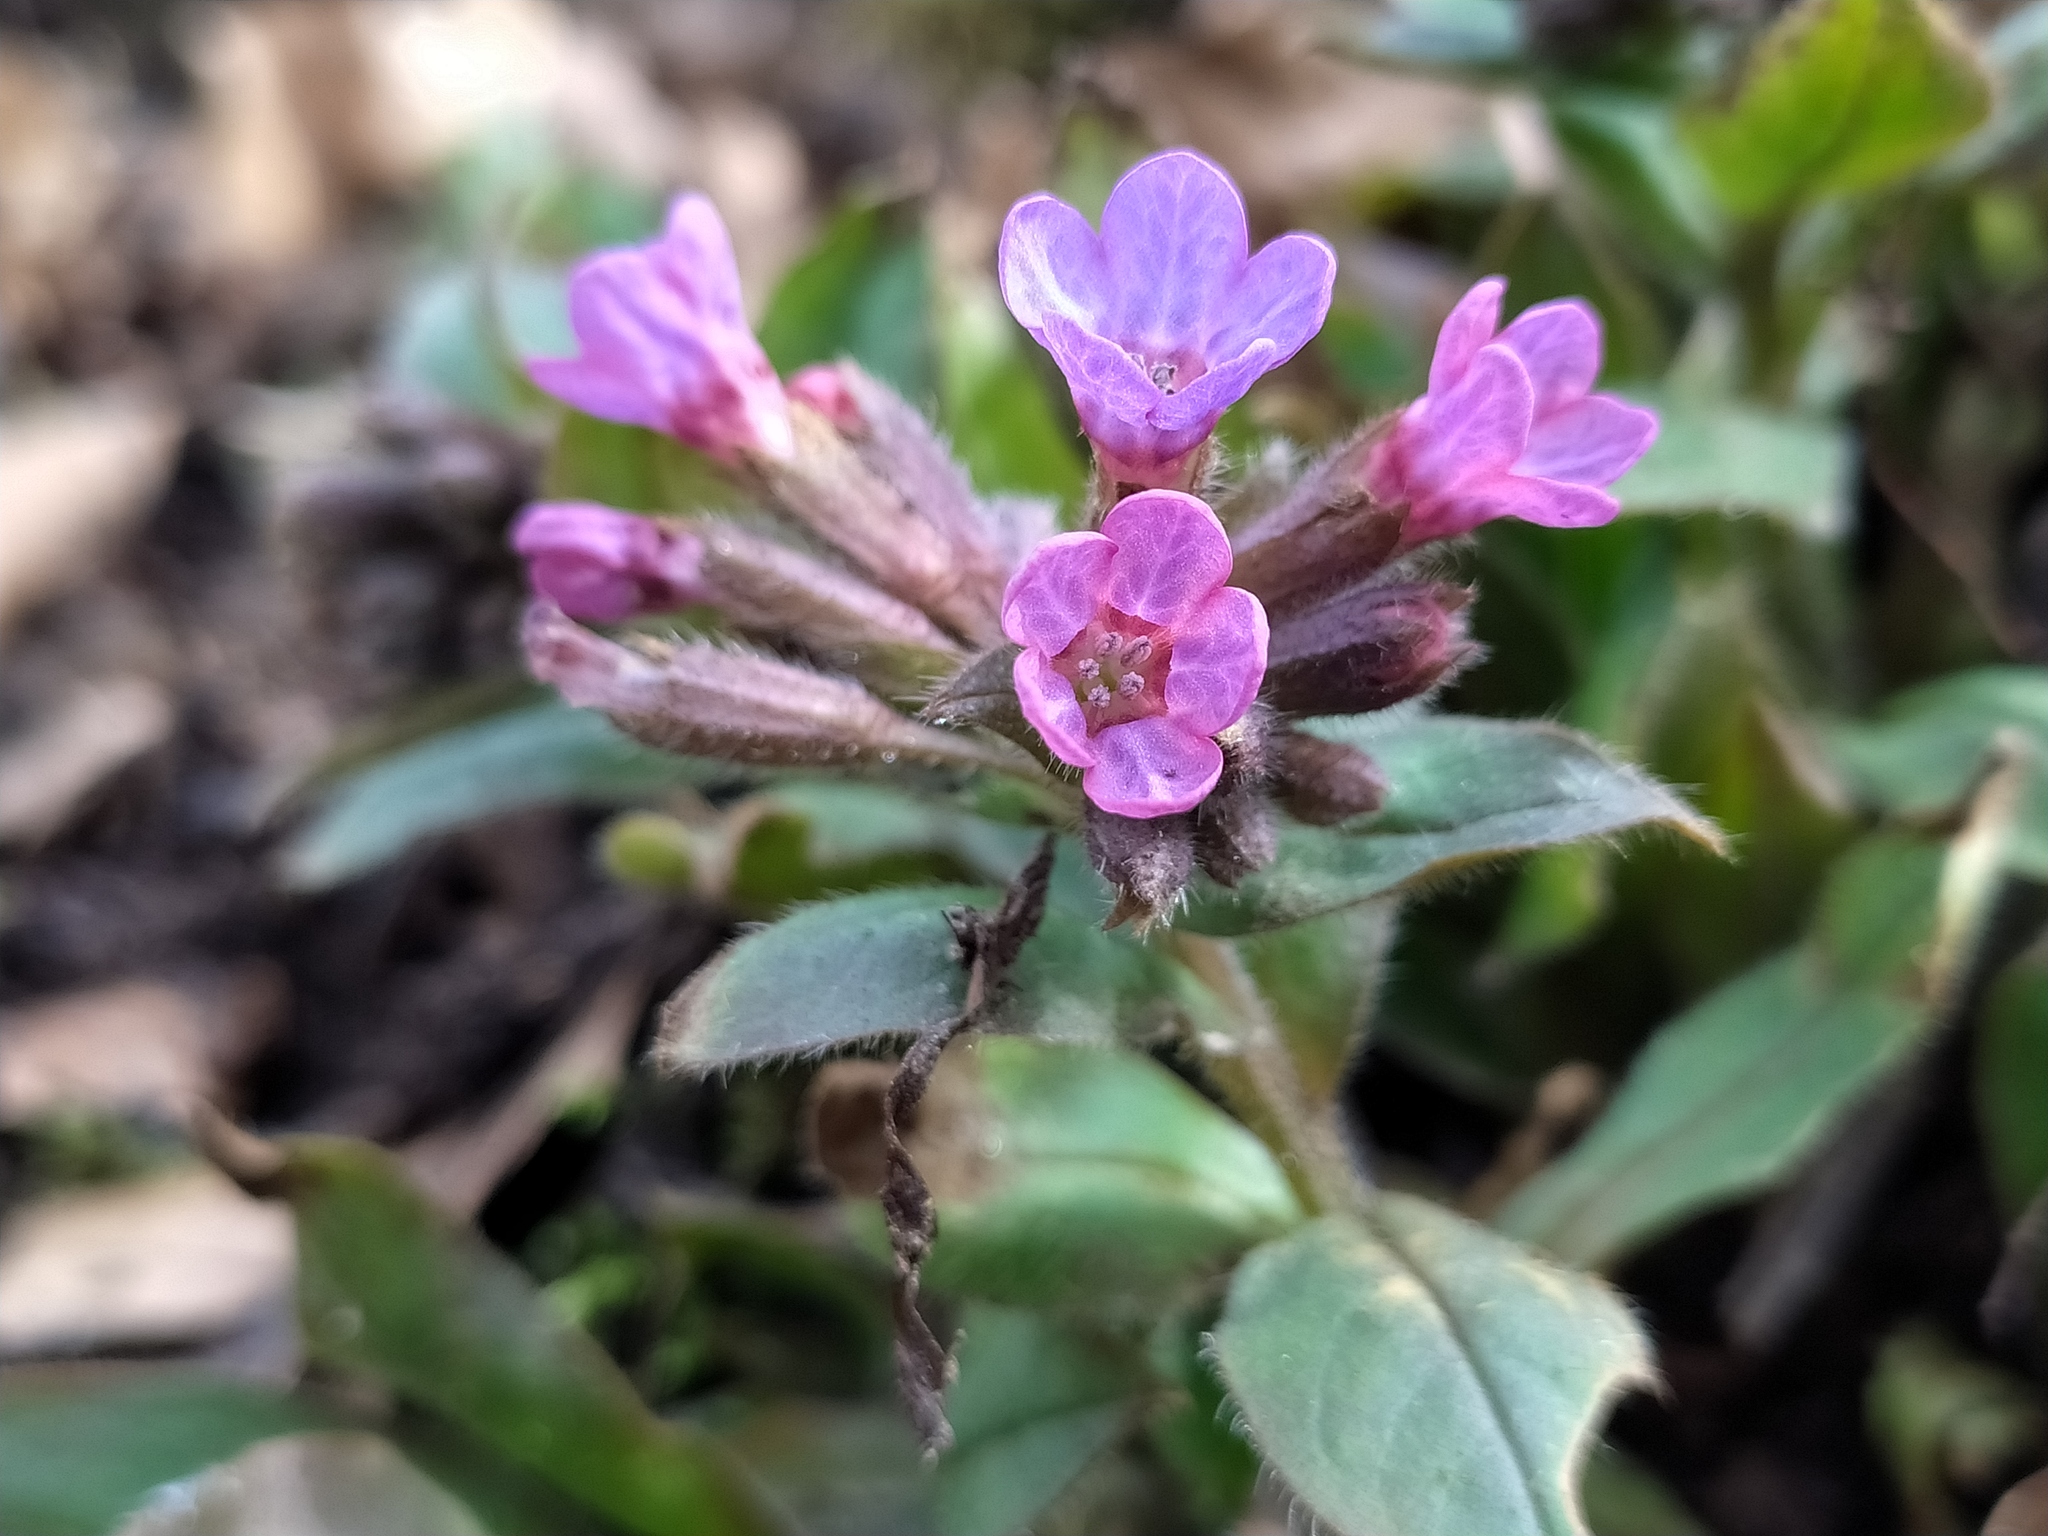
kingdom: Plantae
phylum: Tracheophyta
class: Magnoliopsida
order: Boraginales
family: Boraginaceae
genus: Pulmonaria
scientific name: Pulmonaria obscura
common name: Suffolk lungwort
